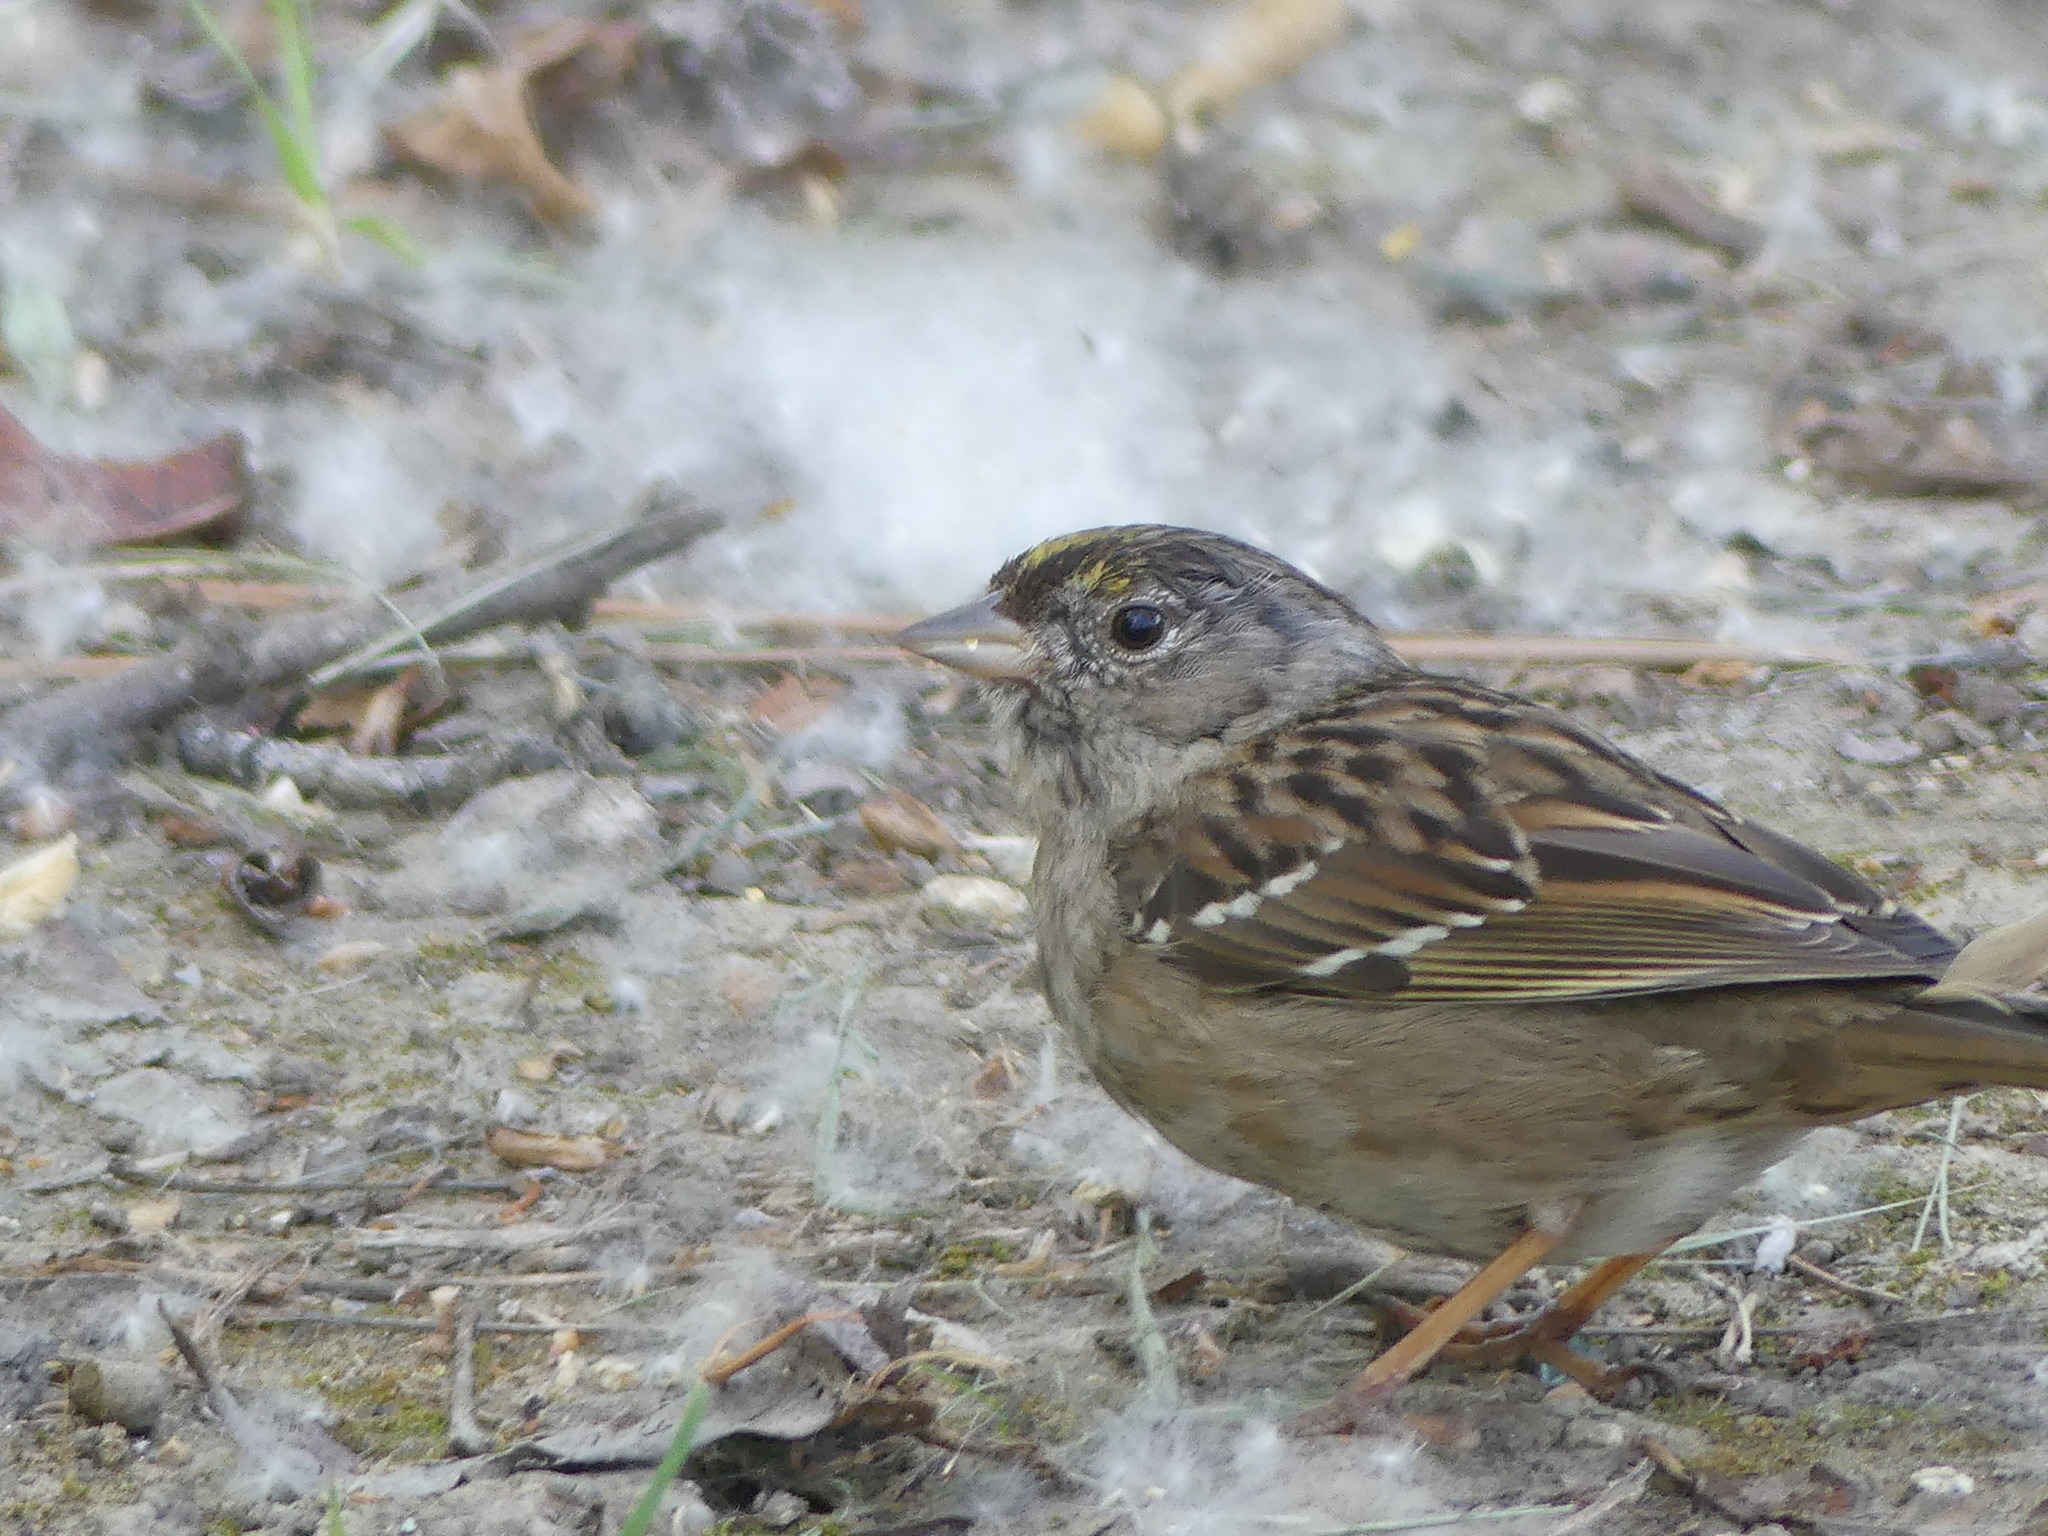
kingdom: Animalia
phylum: Chordata
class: Aves
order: Passeriformes
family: Passerellidae
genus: Zonotrichia
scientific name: Zonotrichia atricapilla
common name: Golden-crowned sparrow
